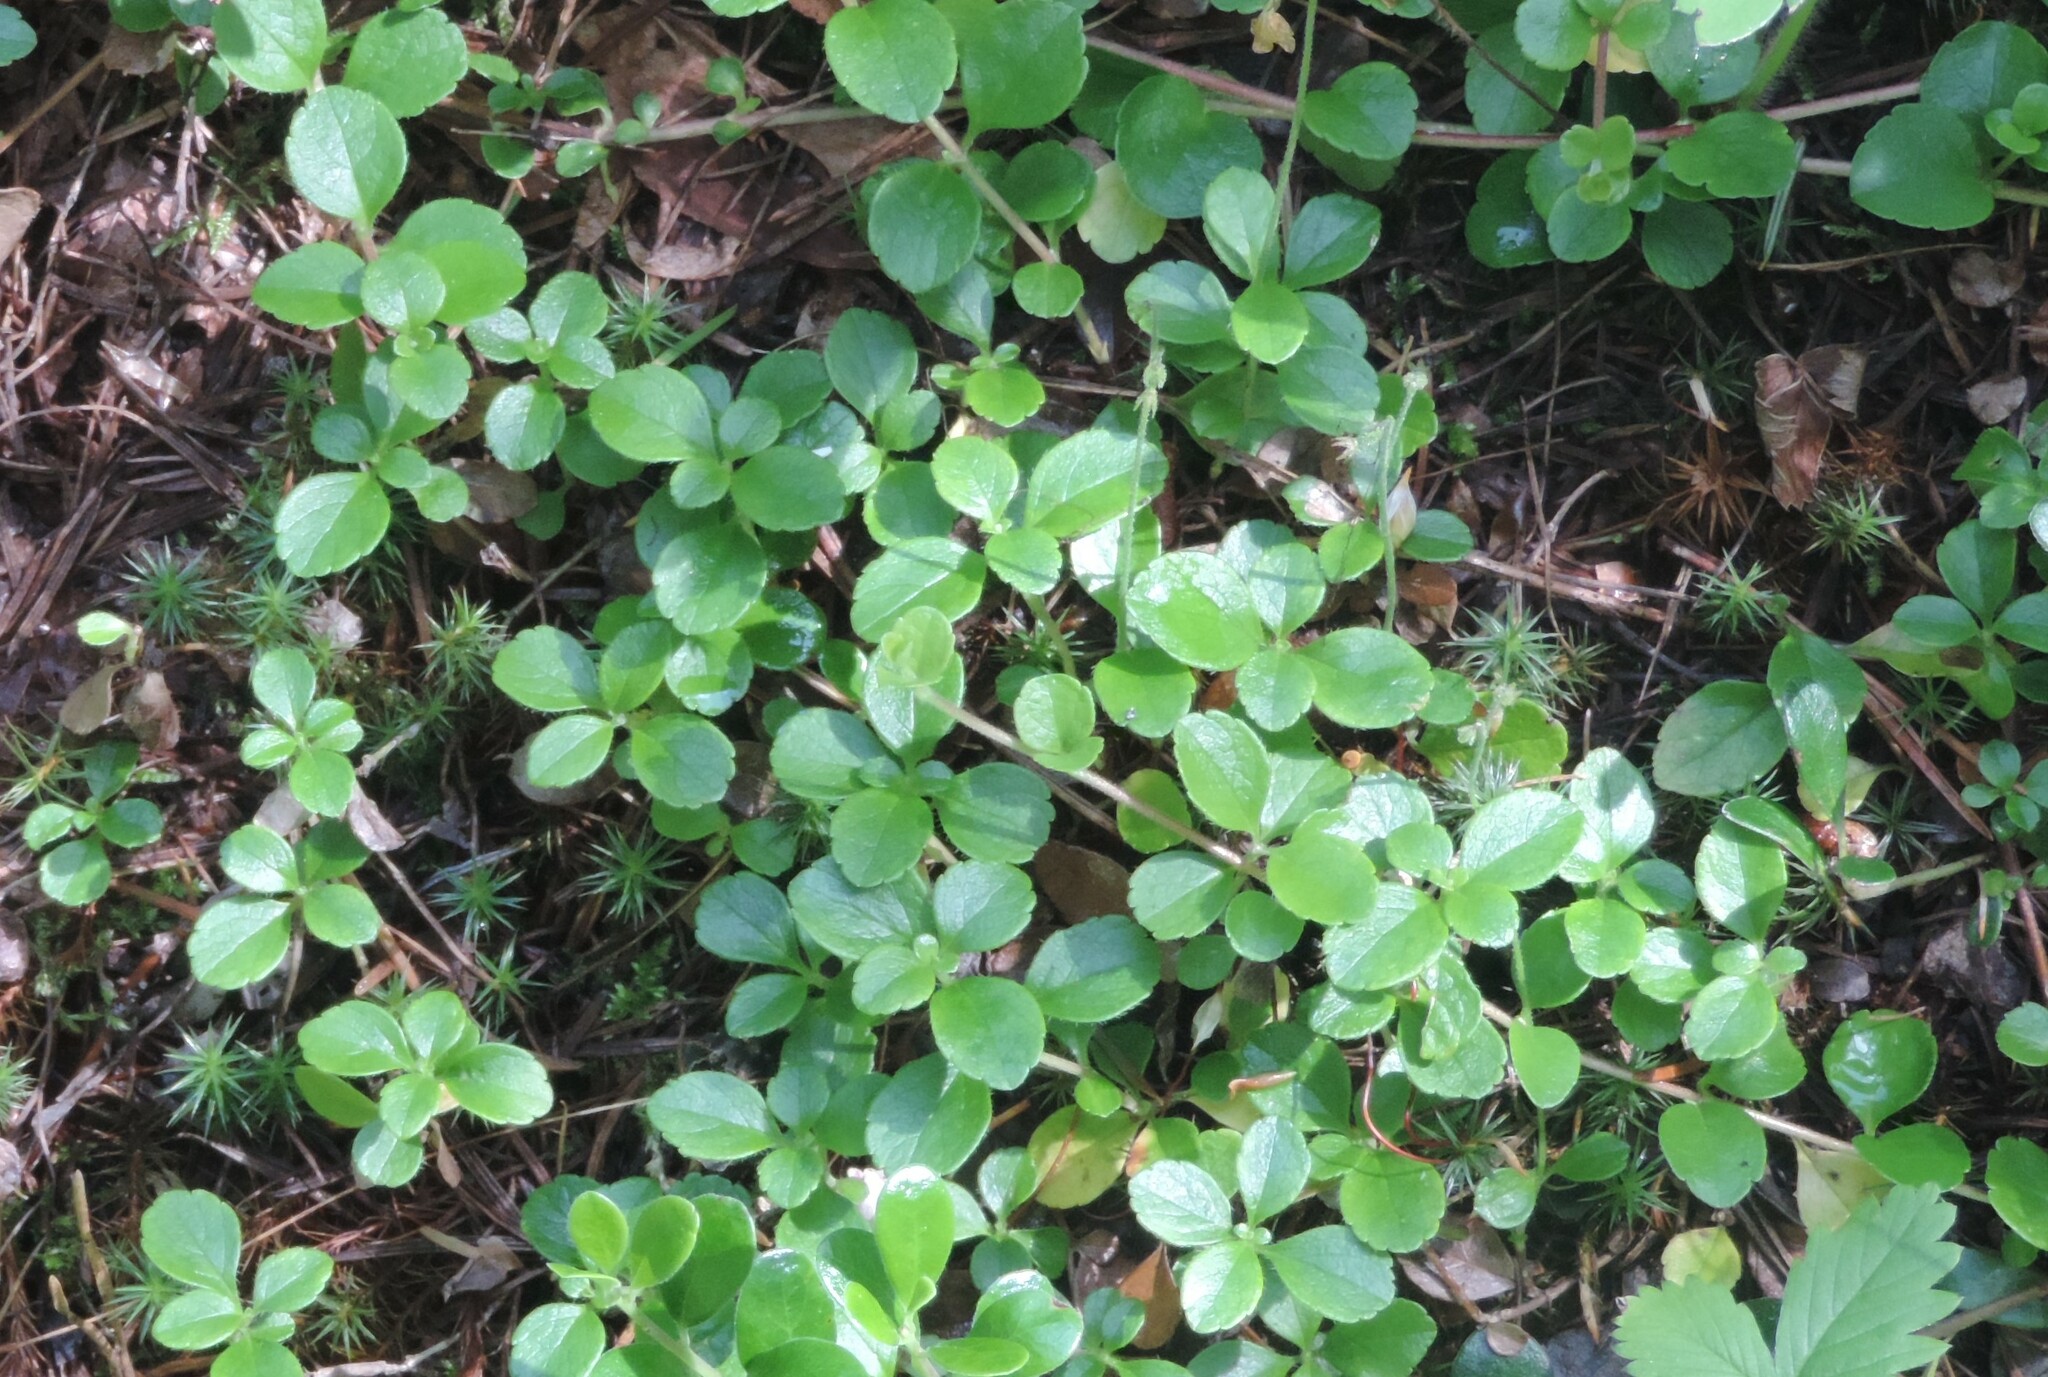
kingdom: Plantae
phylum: Tracheophyta
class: Magnoliopsida
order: Dipsacales
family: Caprifoliaceae
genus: Linnaea
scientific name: Linnaea borealis
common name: Twinflower
